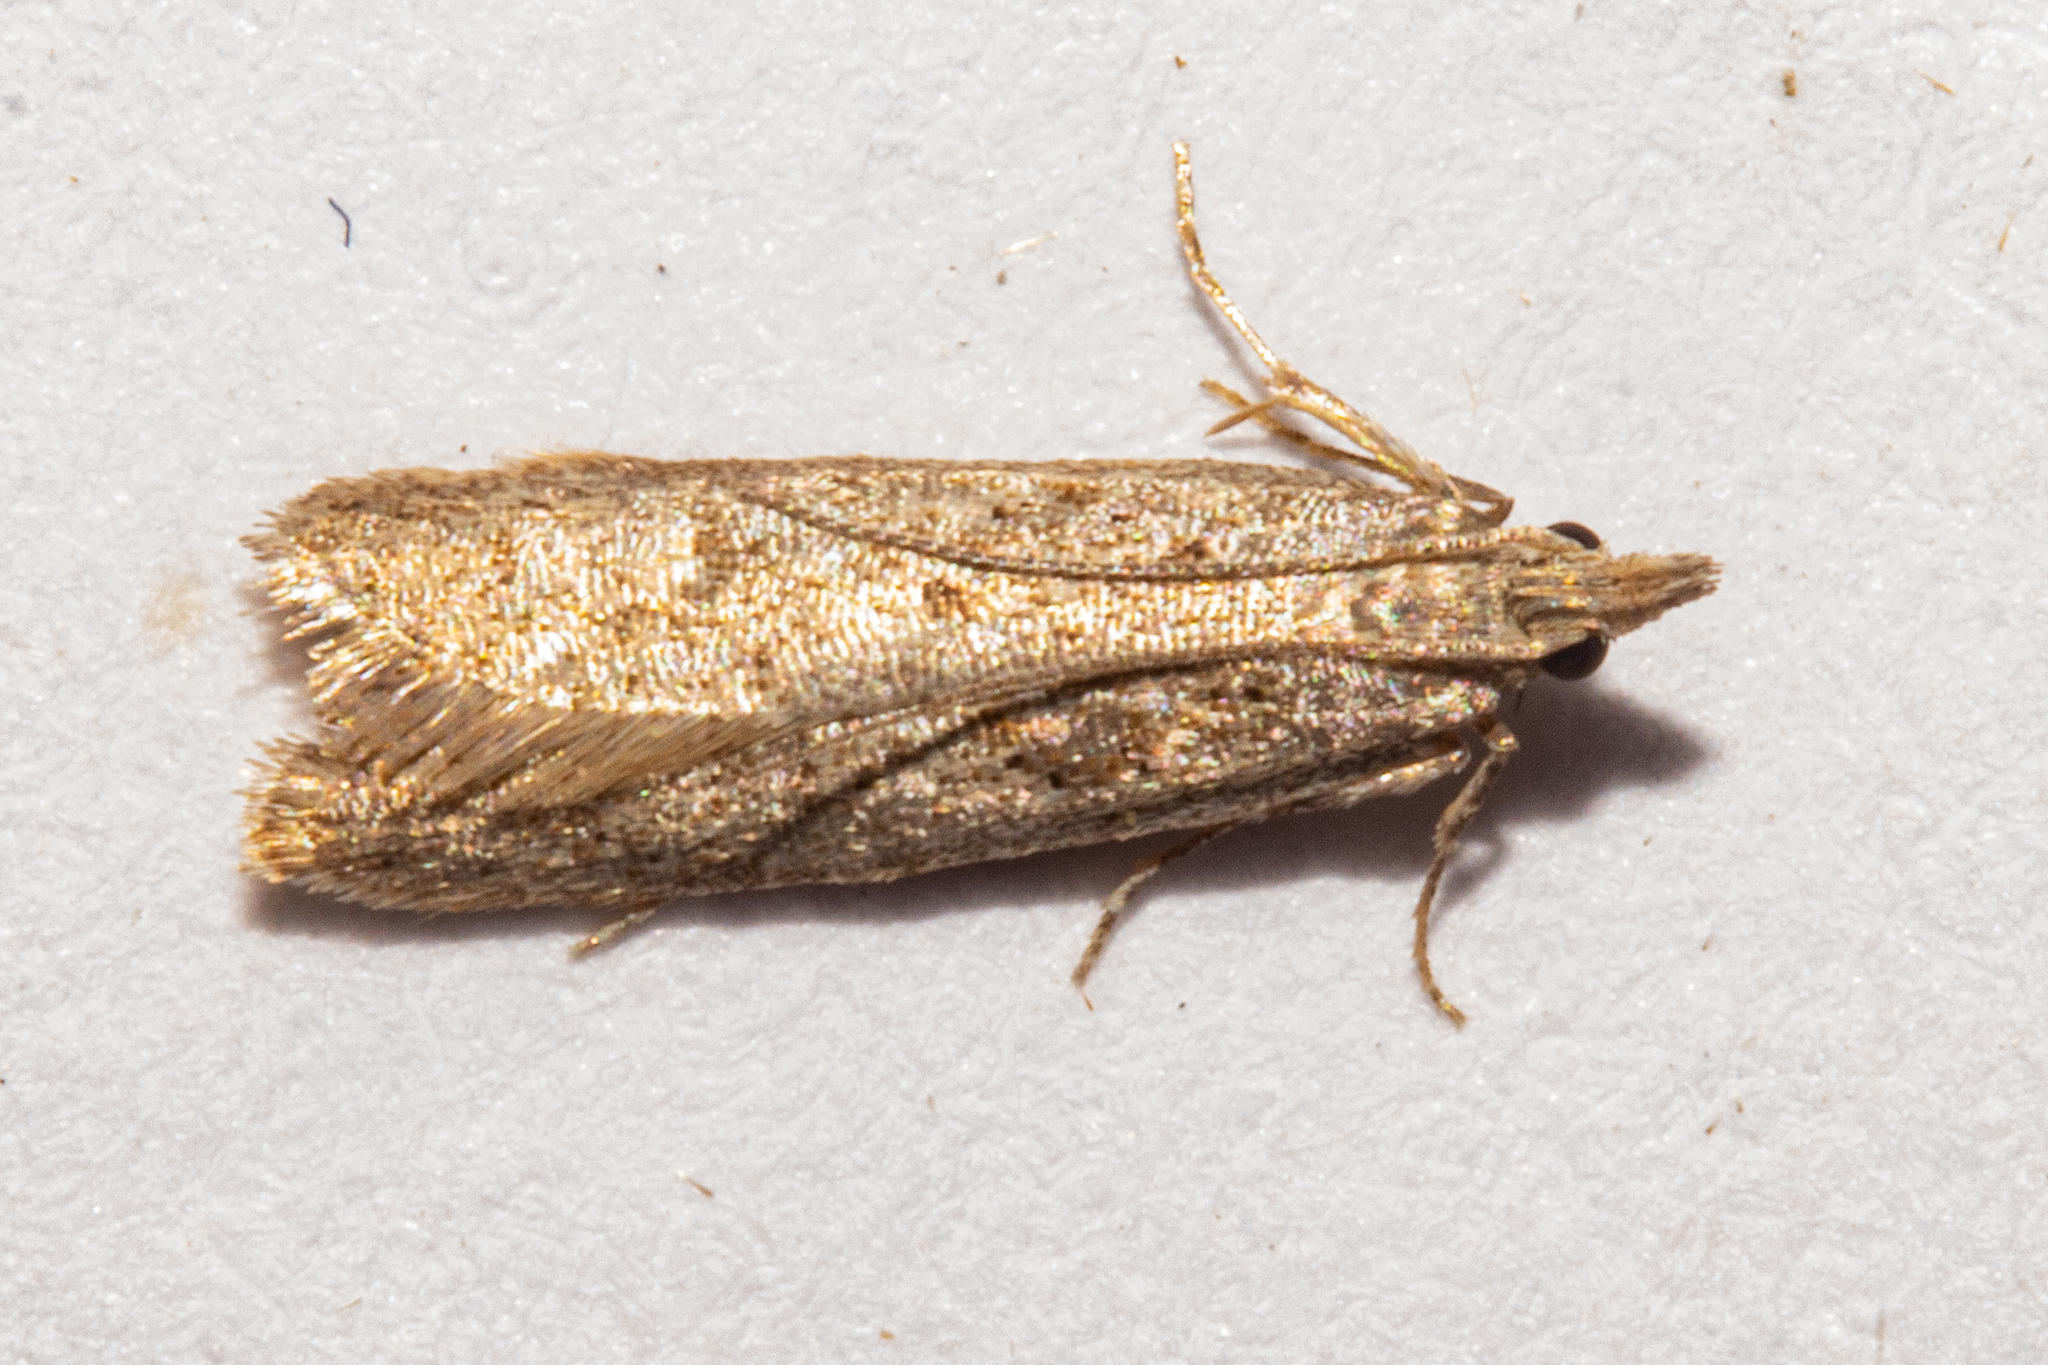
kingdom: Animalia
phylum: Arthropoda
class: Insecta
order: Lepidoptera
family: Oecophoridae
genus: Thamnosara
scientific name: Thamnosara sublitella
